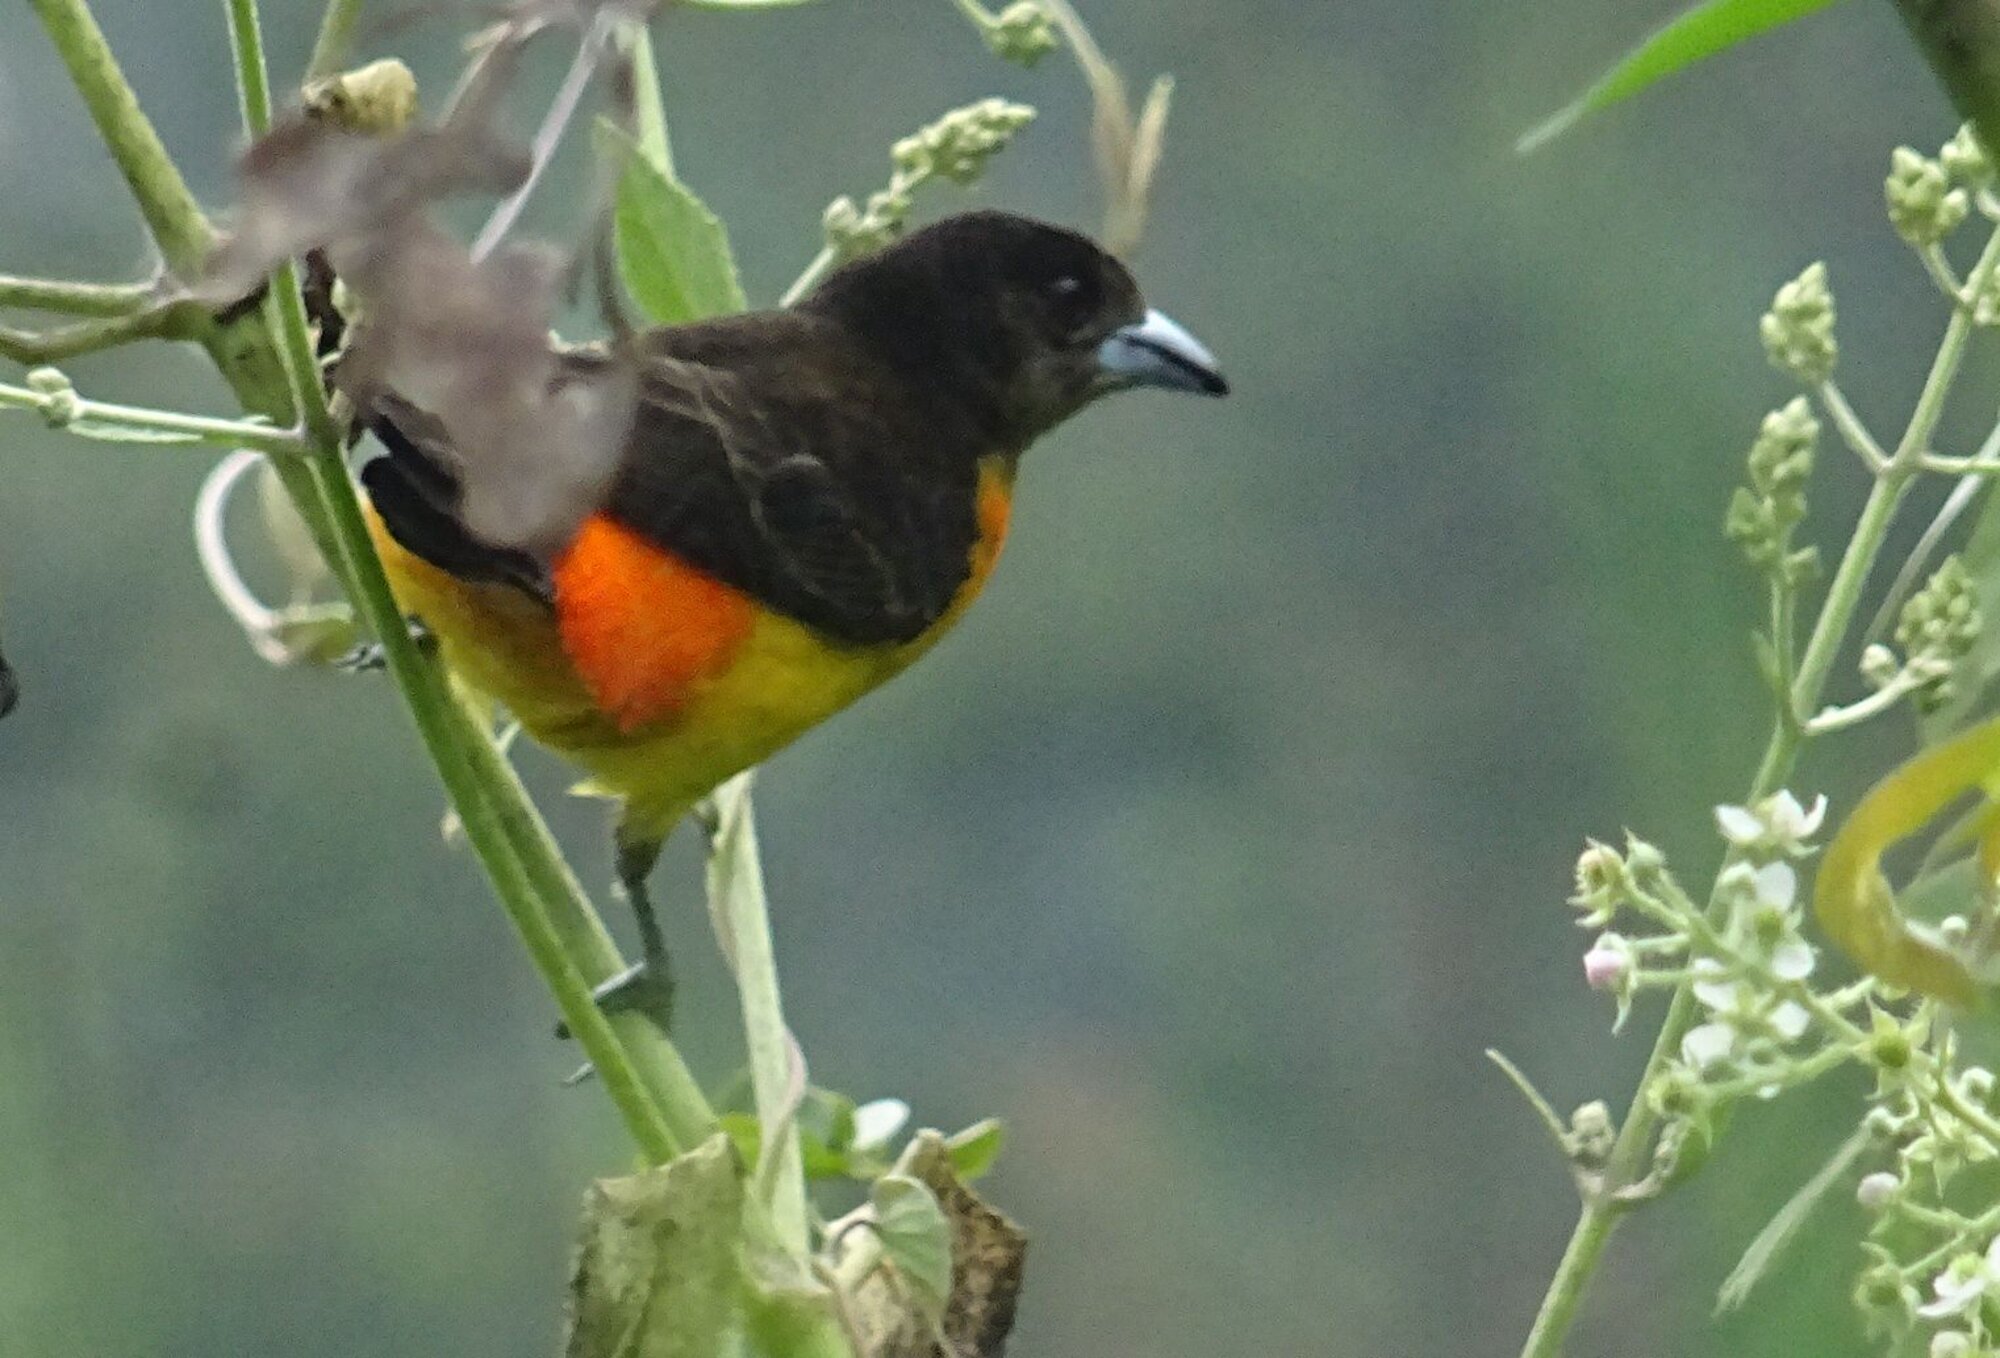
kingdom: Animalia
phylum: Chordata
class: Aves
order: Passeriformes
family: Thraupidae
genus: Ramphocelus
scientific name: Ramphocelus flammigerus
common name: Flame-rumped tanager
